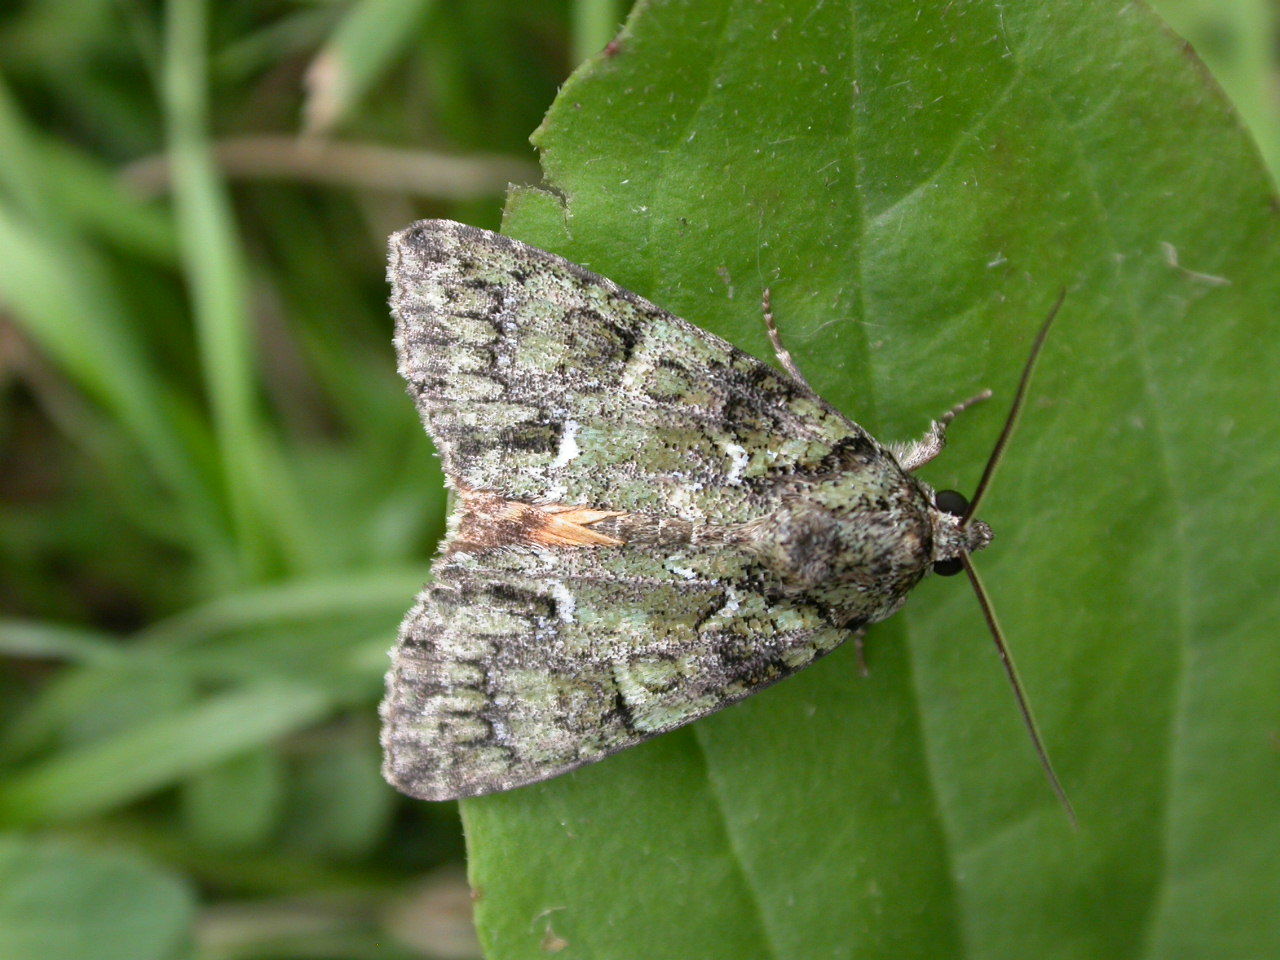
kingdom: Animalia
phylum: Arthropoda
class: Insecta
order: Lepidoptera
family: Noctuidae
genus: Polyphaenis
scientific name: Polyphaenis sericata
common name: Guernsey underwing
